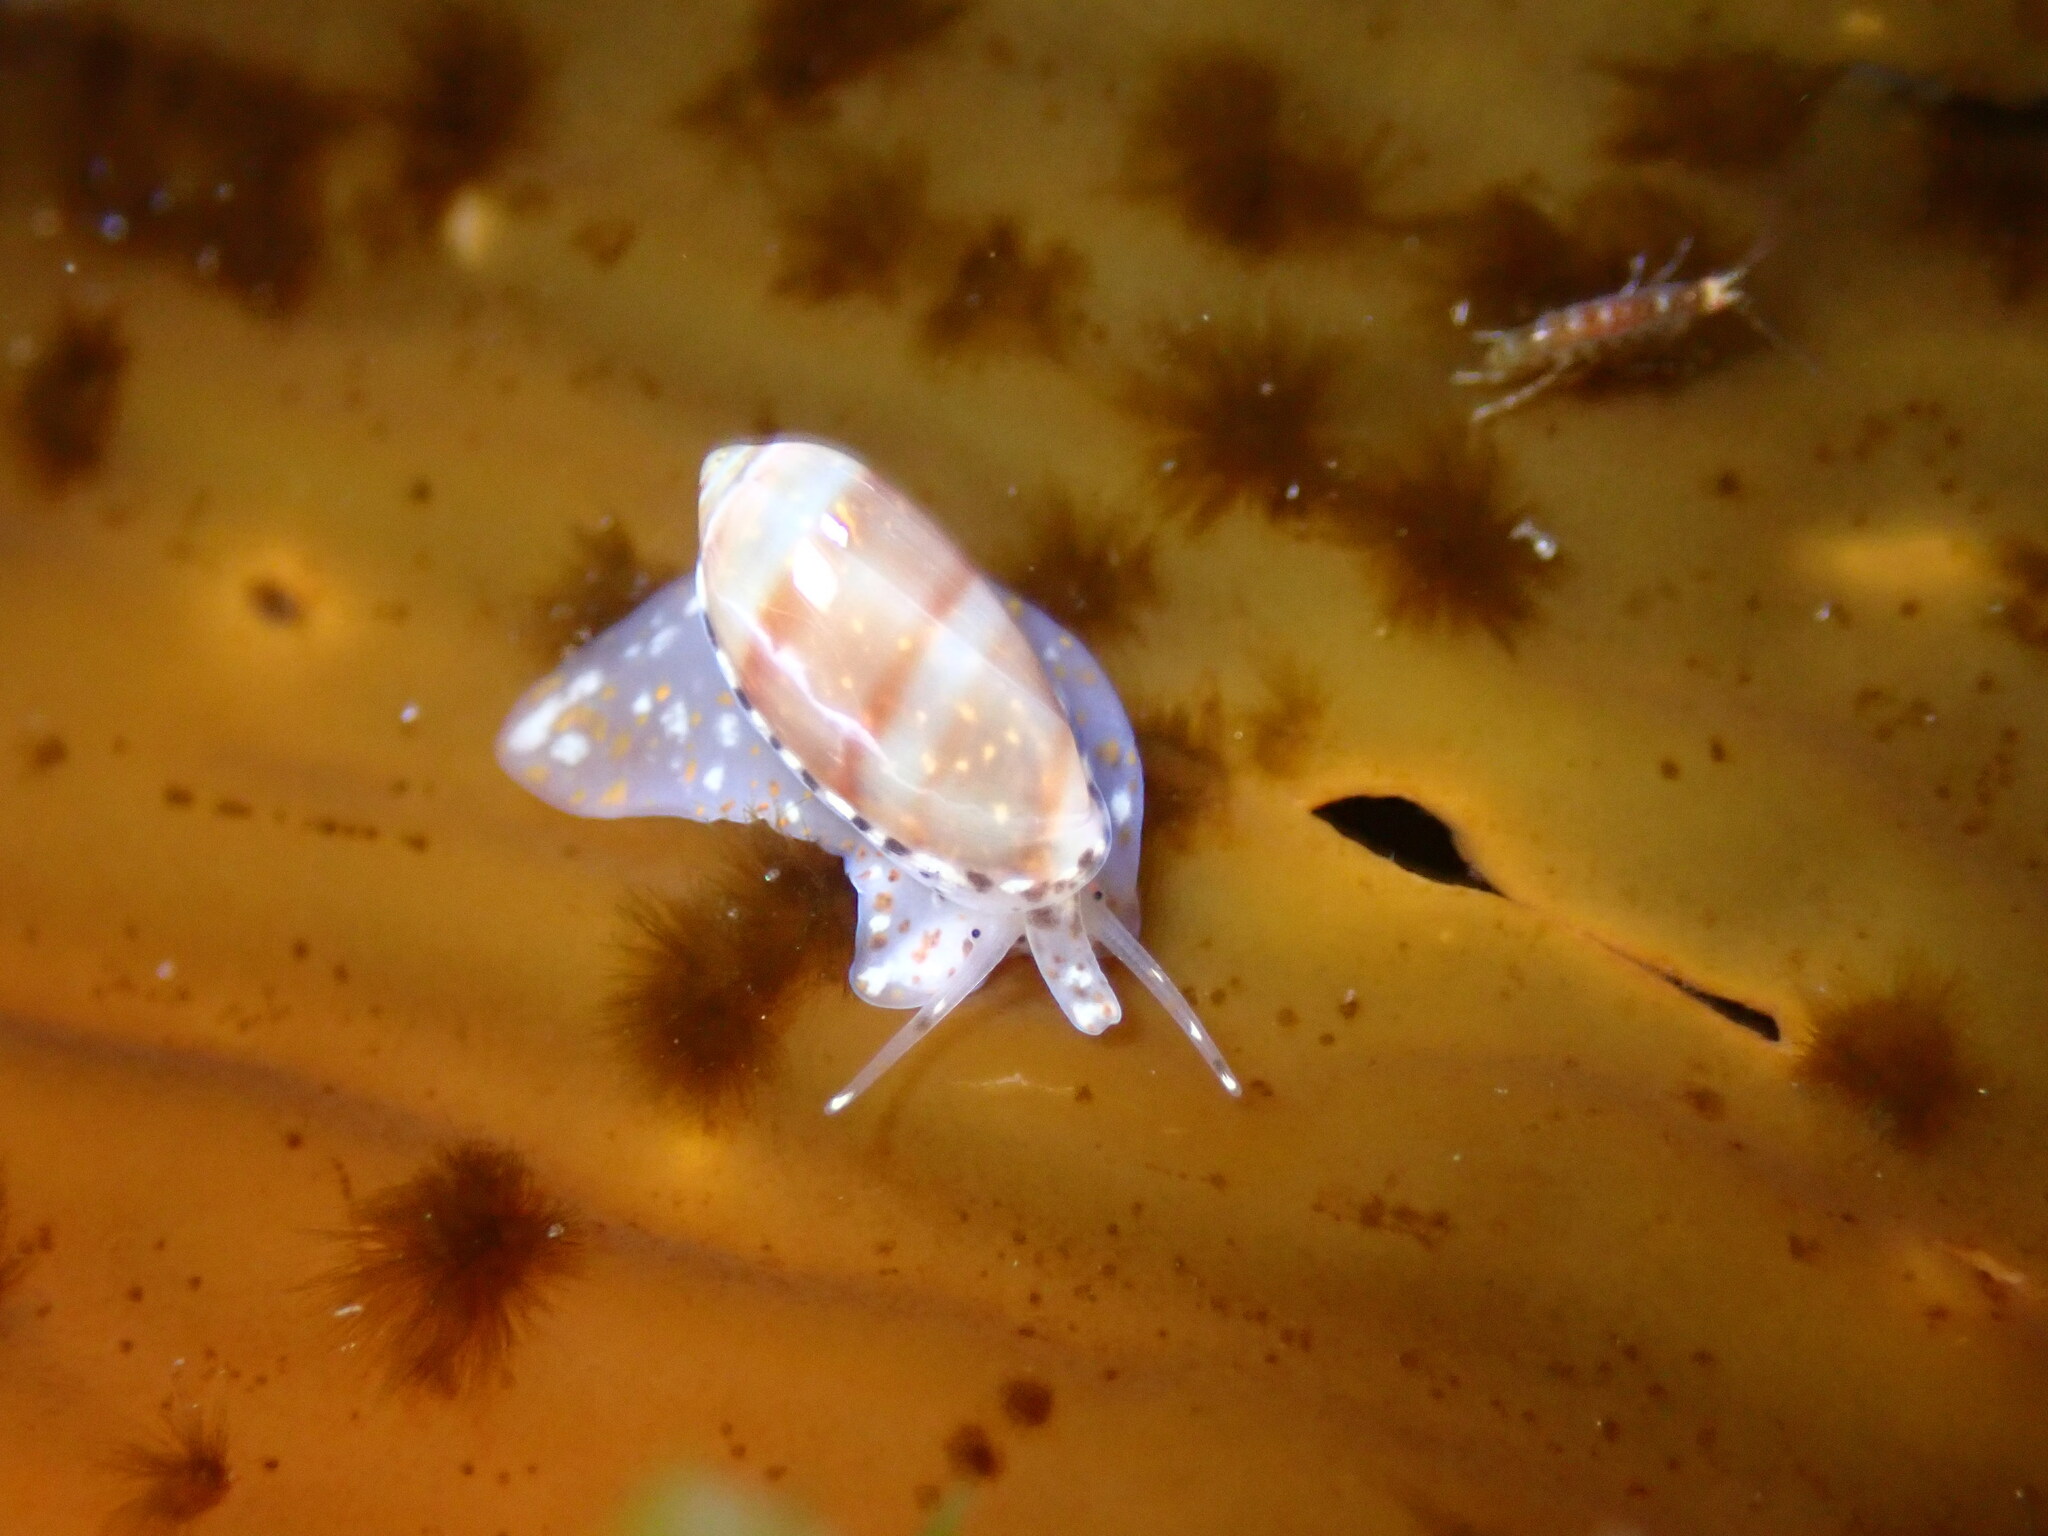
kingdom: Animalia
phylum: Mollusca
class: Gastropoda
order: Neogastropoda
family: Marginellidae
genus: Volvarina
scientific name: Volvarina taeniolata
